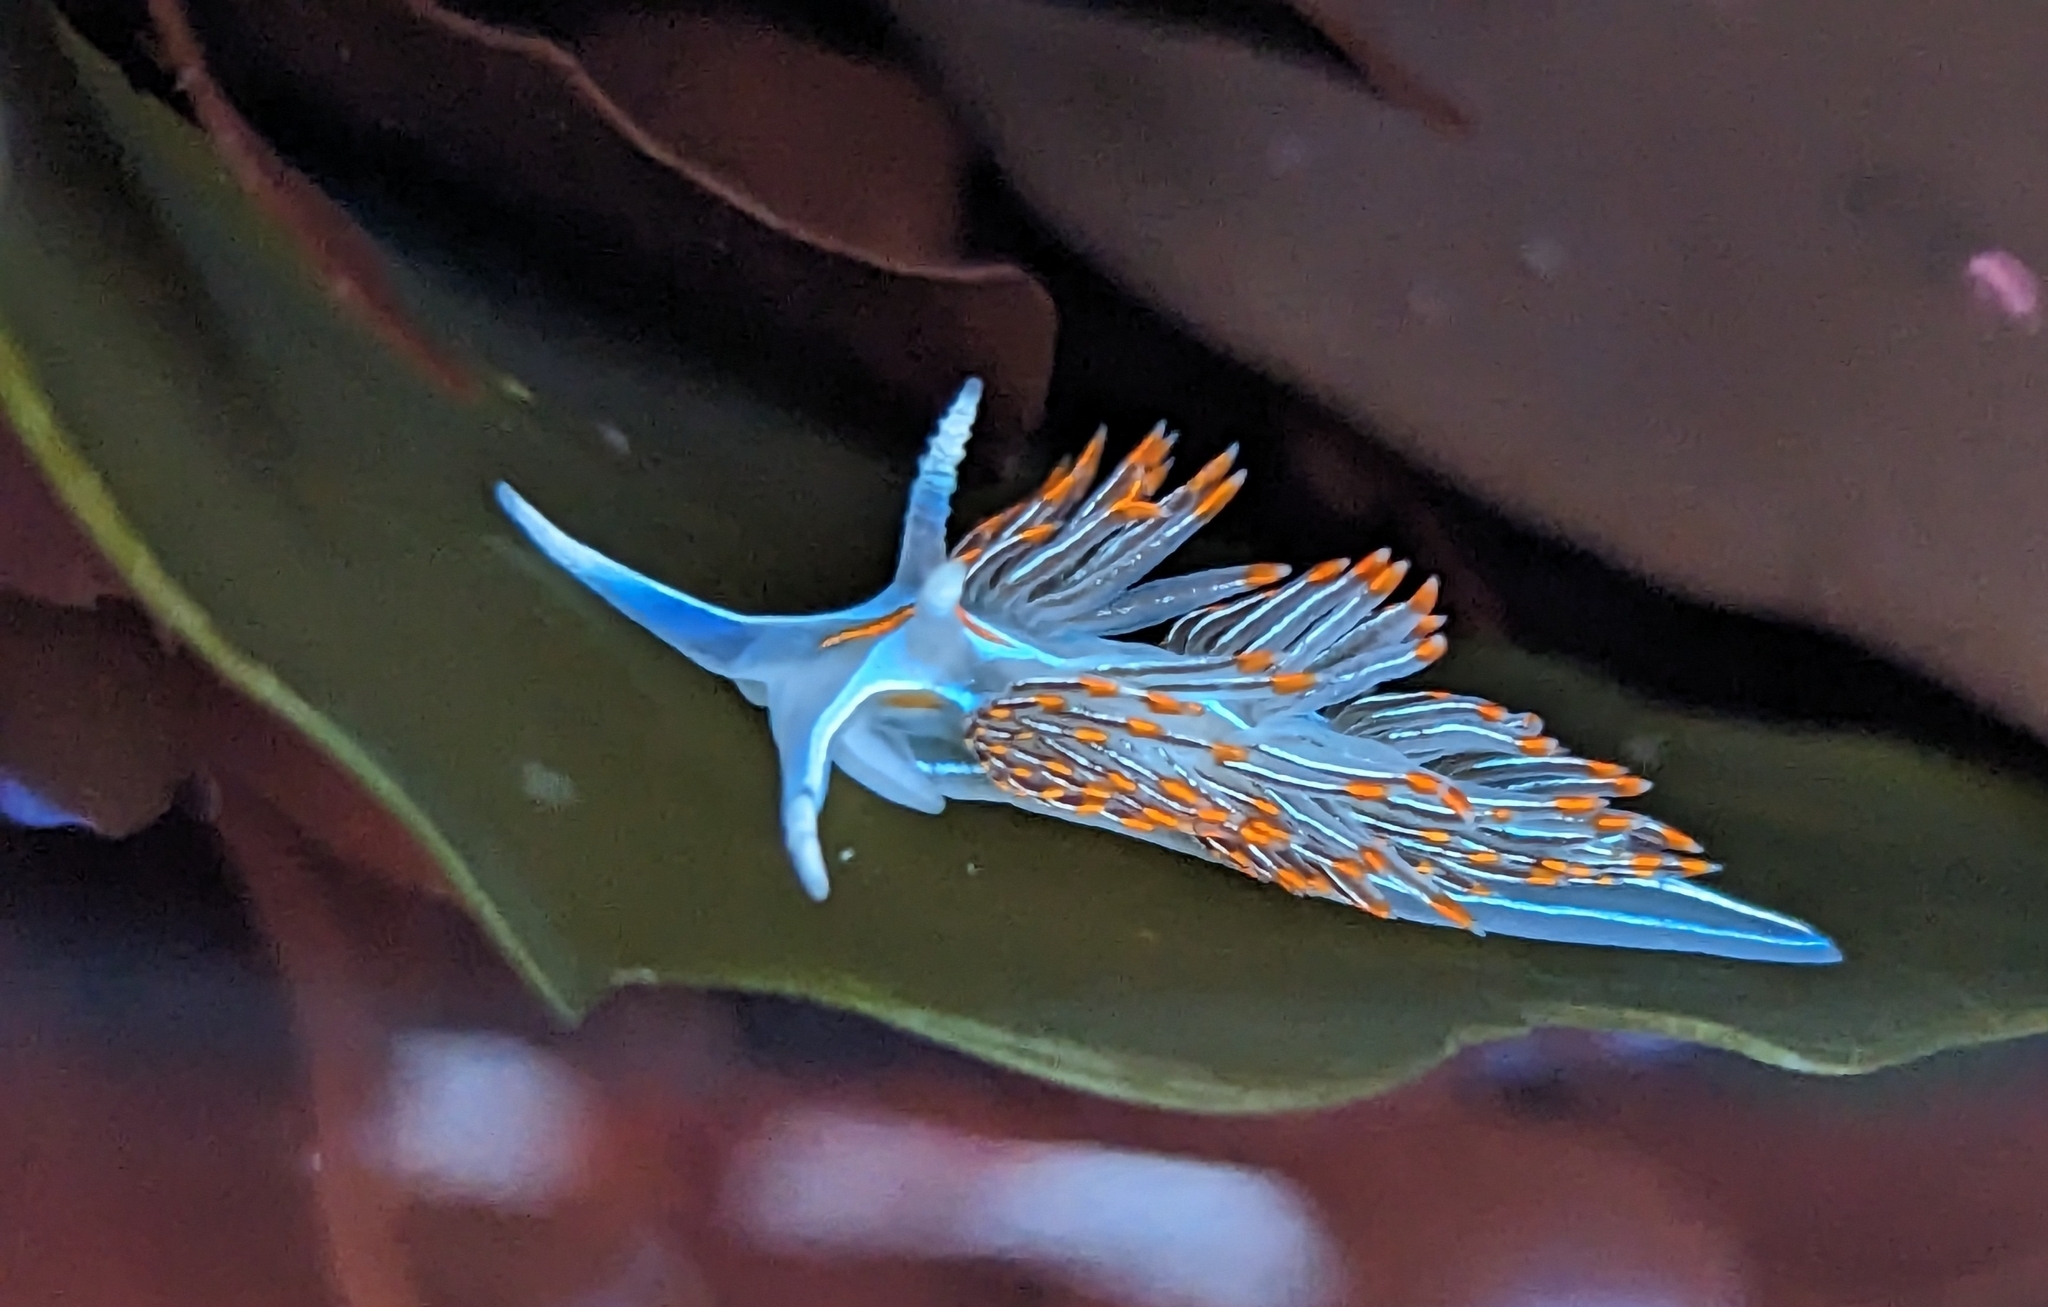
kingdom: Animalia
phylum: Mollusca
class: Gastropoda
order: Nudibranchia
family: Myrrhinidae
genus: Hermissenda
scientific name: Hermissenda crassicornis
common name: Hermissenda
